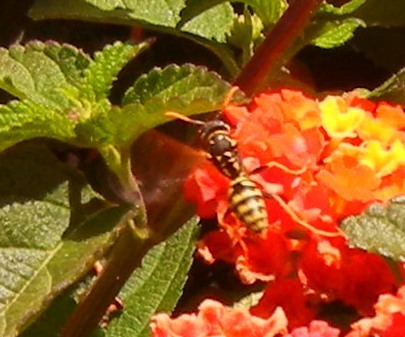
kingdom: Animalia
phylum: Arthropoda
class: Insecta
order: Hymenoptera
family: Eumenidae
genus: Polistes
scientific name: Polistes dominula
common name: Paper wasp
